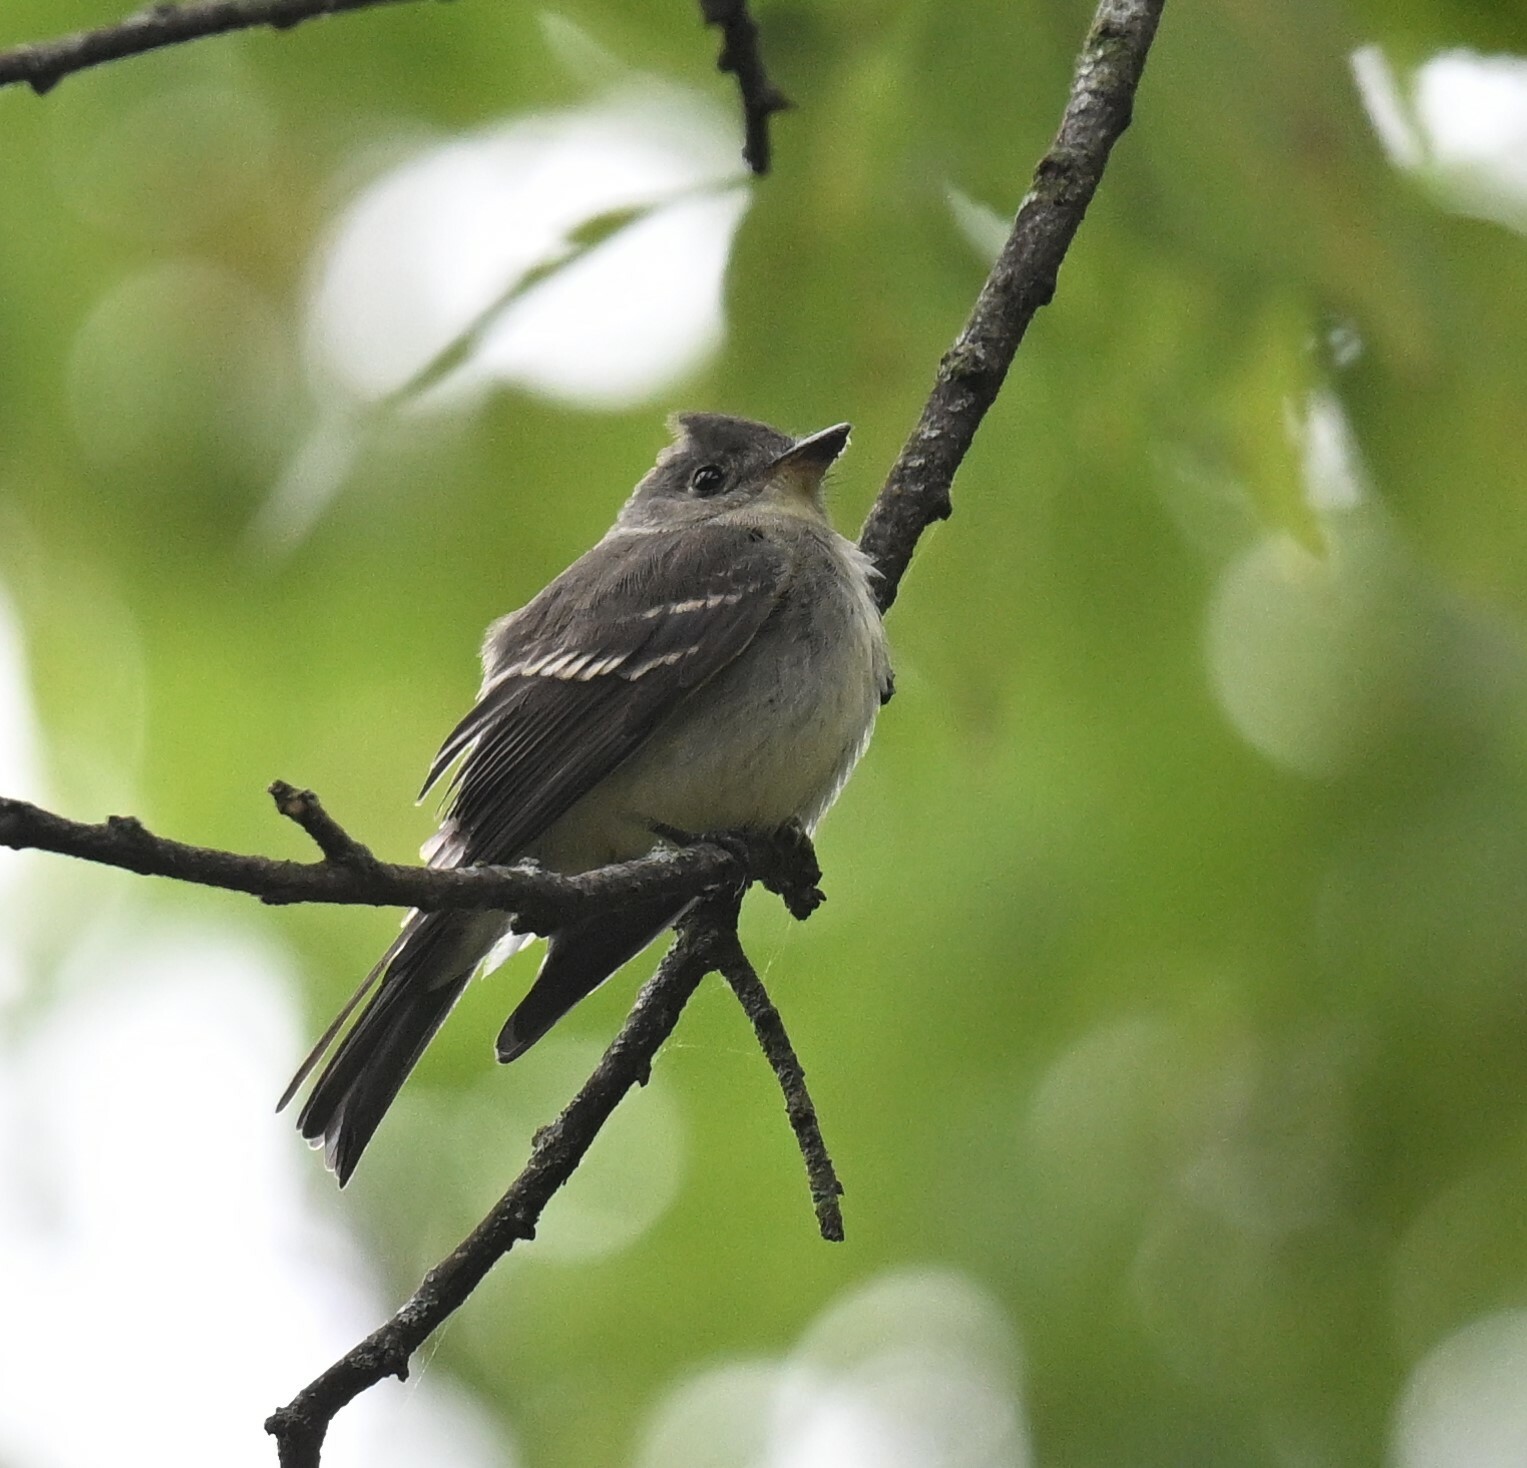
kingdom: Animalia
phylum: Chordata
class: Aves
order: Passeriformes
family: Tyrannidae
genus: Contopus
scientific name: Contopus virens
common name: Eastern wood-pewee
